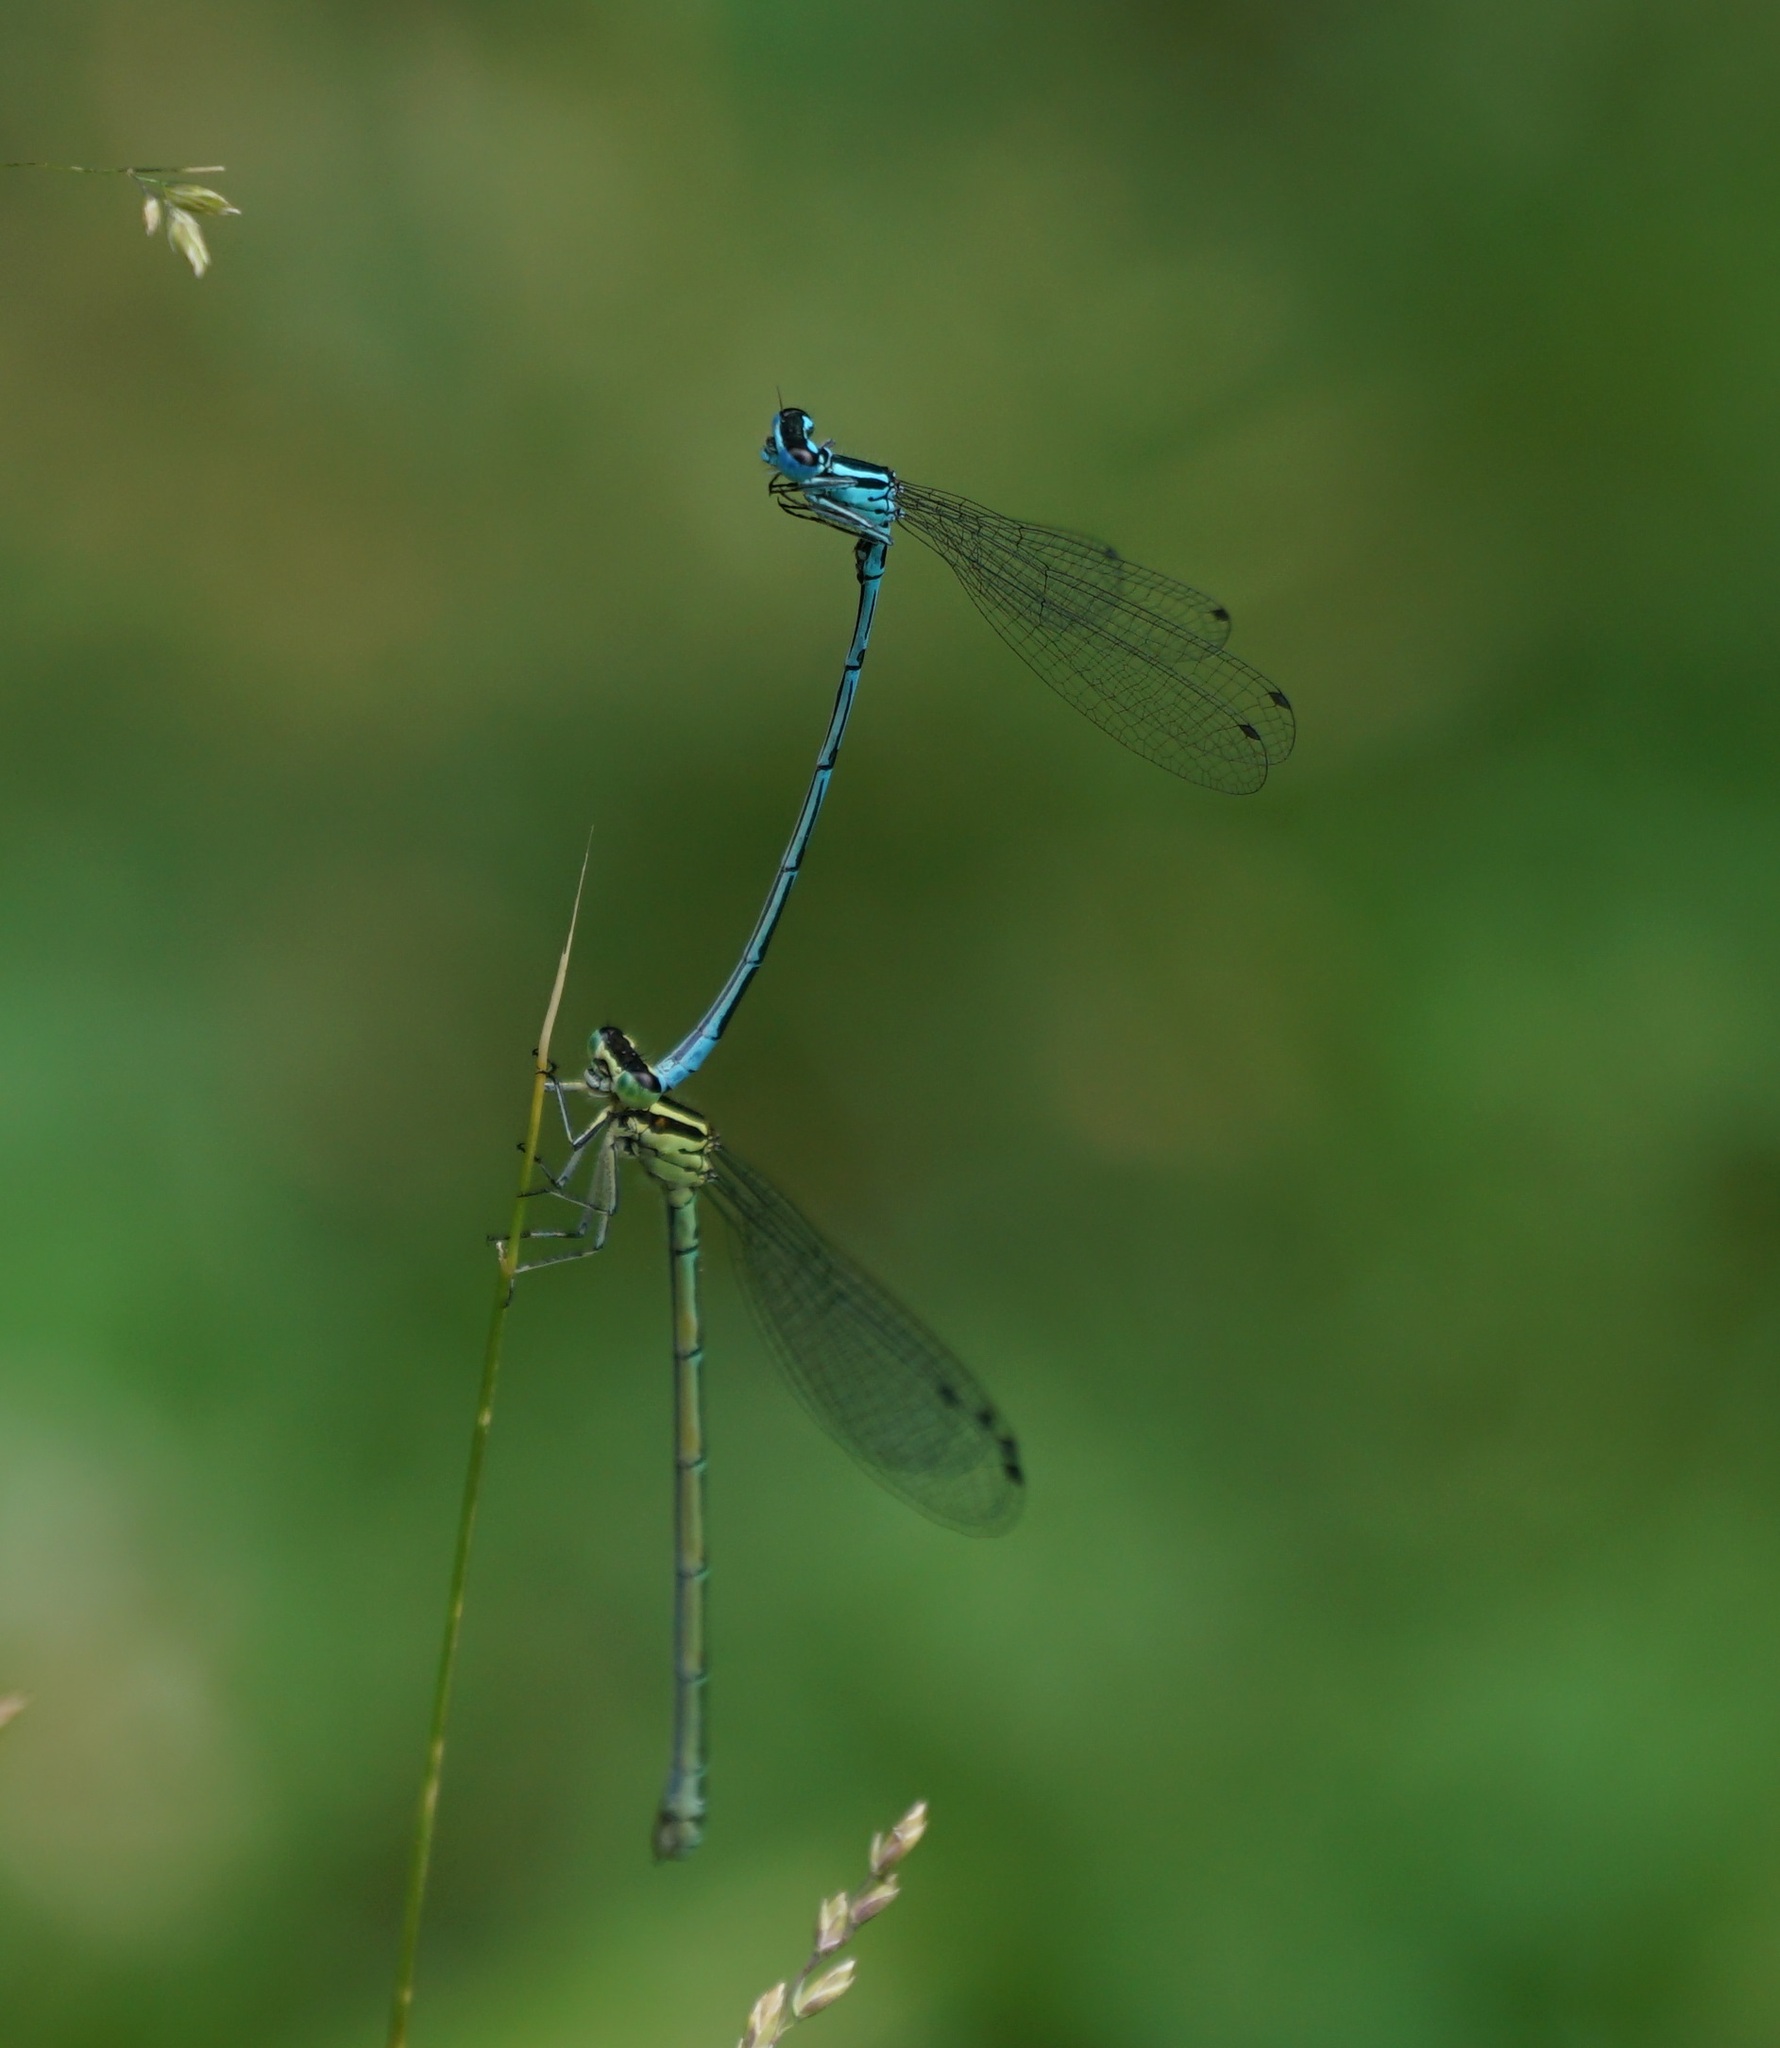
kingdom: Animalia
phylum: Arthropoda
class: Insecta
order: Odonata
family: Coenagrionidae
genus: Coenagrion
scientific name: Coenagrion puella
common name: Azure damselfly
